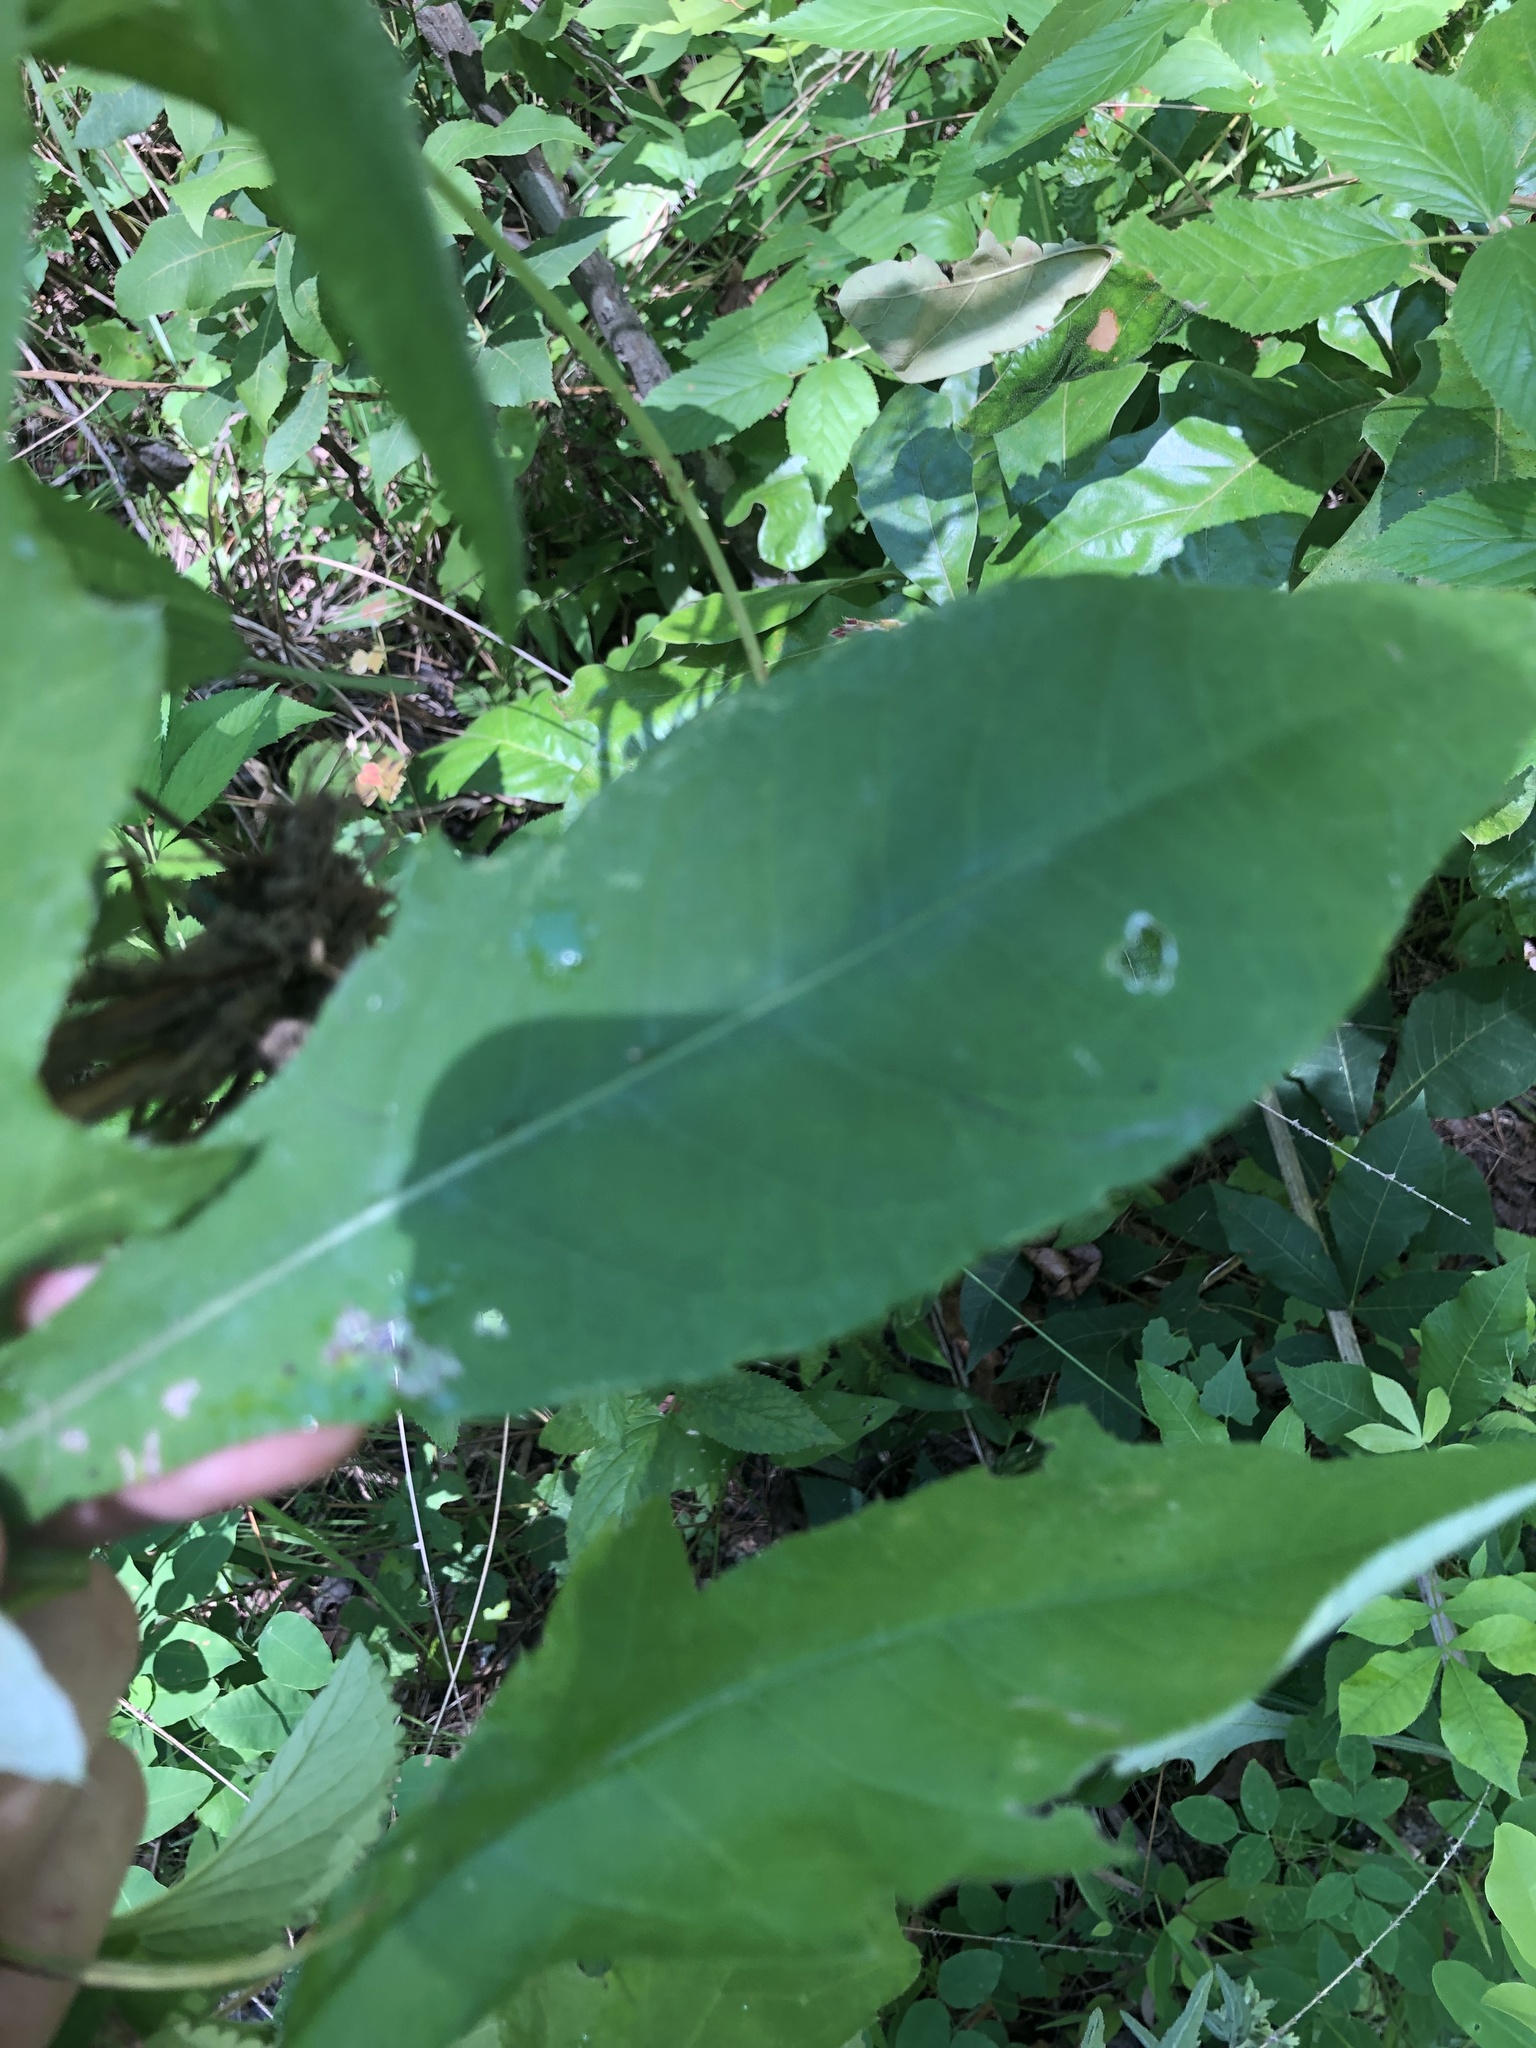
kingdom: Plantae
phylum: Tracheophyta
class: Magnoliopsida
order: Asterales
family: Asteraceae
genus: Cirsium
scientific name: Cirsium altissimum
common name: Roadside thistle
